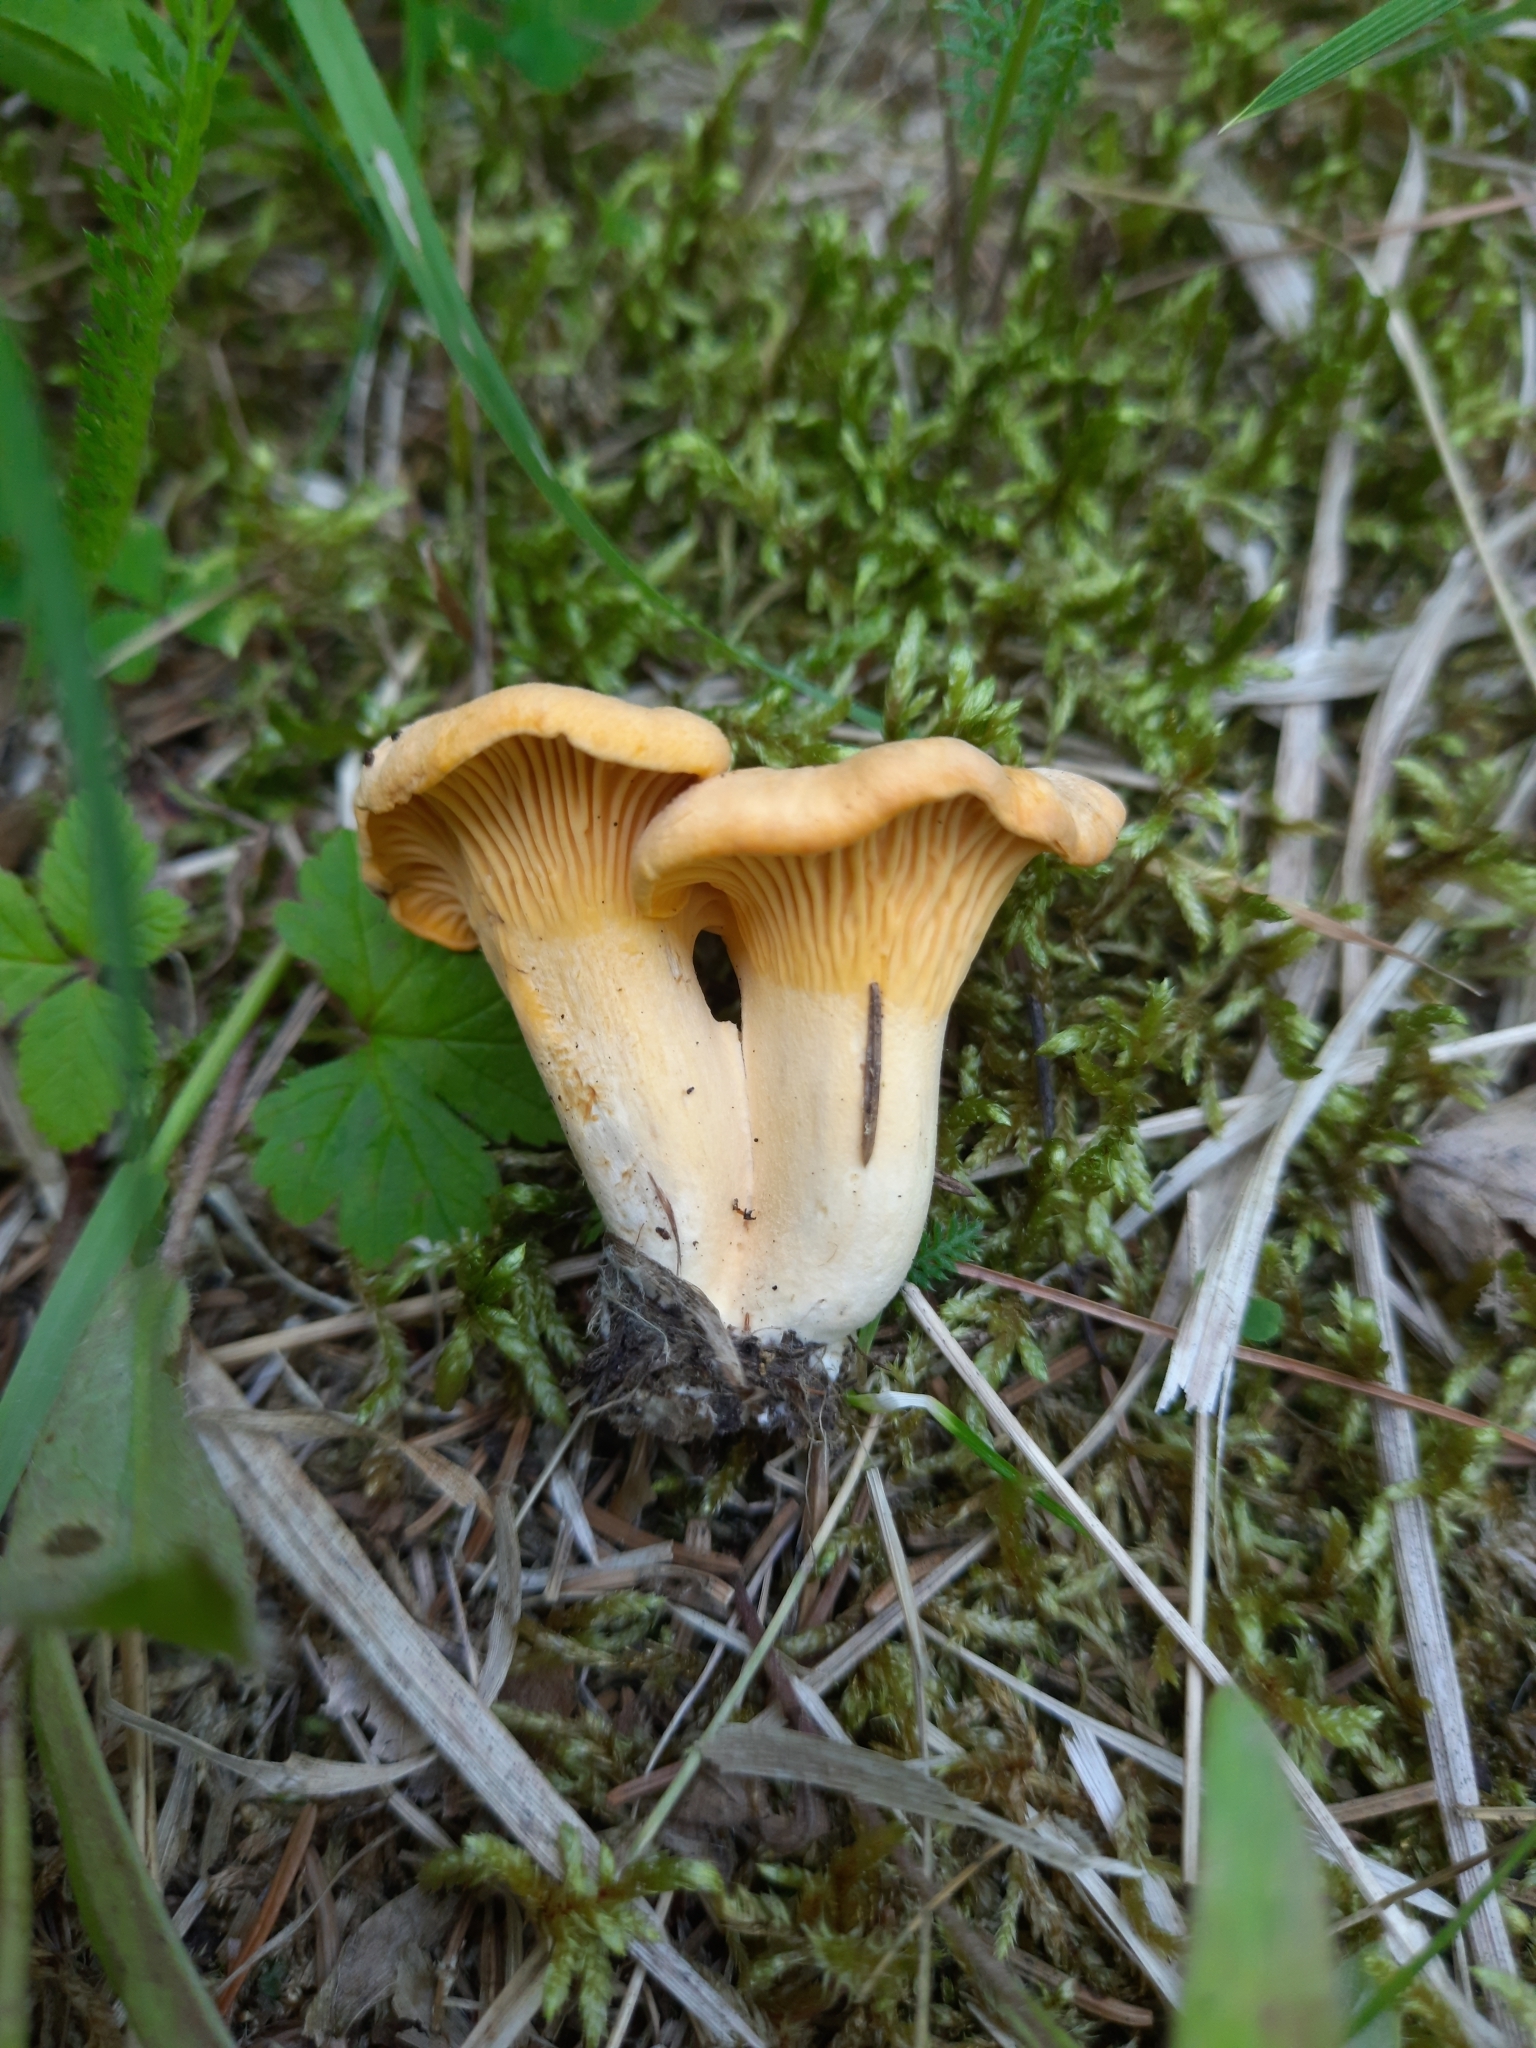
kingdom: Fungi
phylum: Basidiomycota
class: Agaricomycetes
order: Cantharellales
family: Hydnaceae
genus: Cantharellus
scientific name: Cantharellus cibarius
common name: Chanterelle
